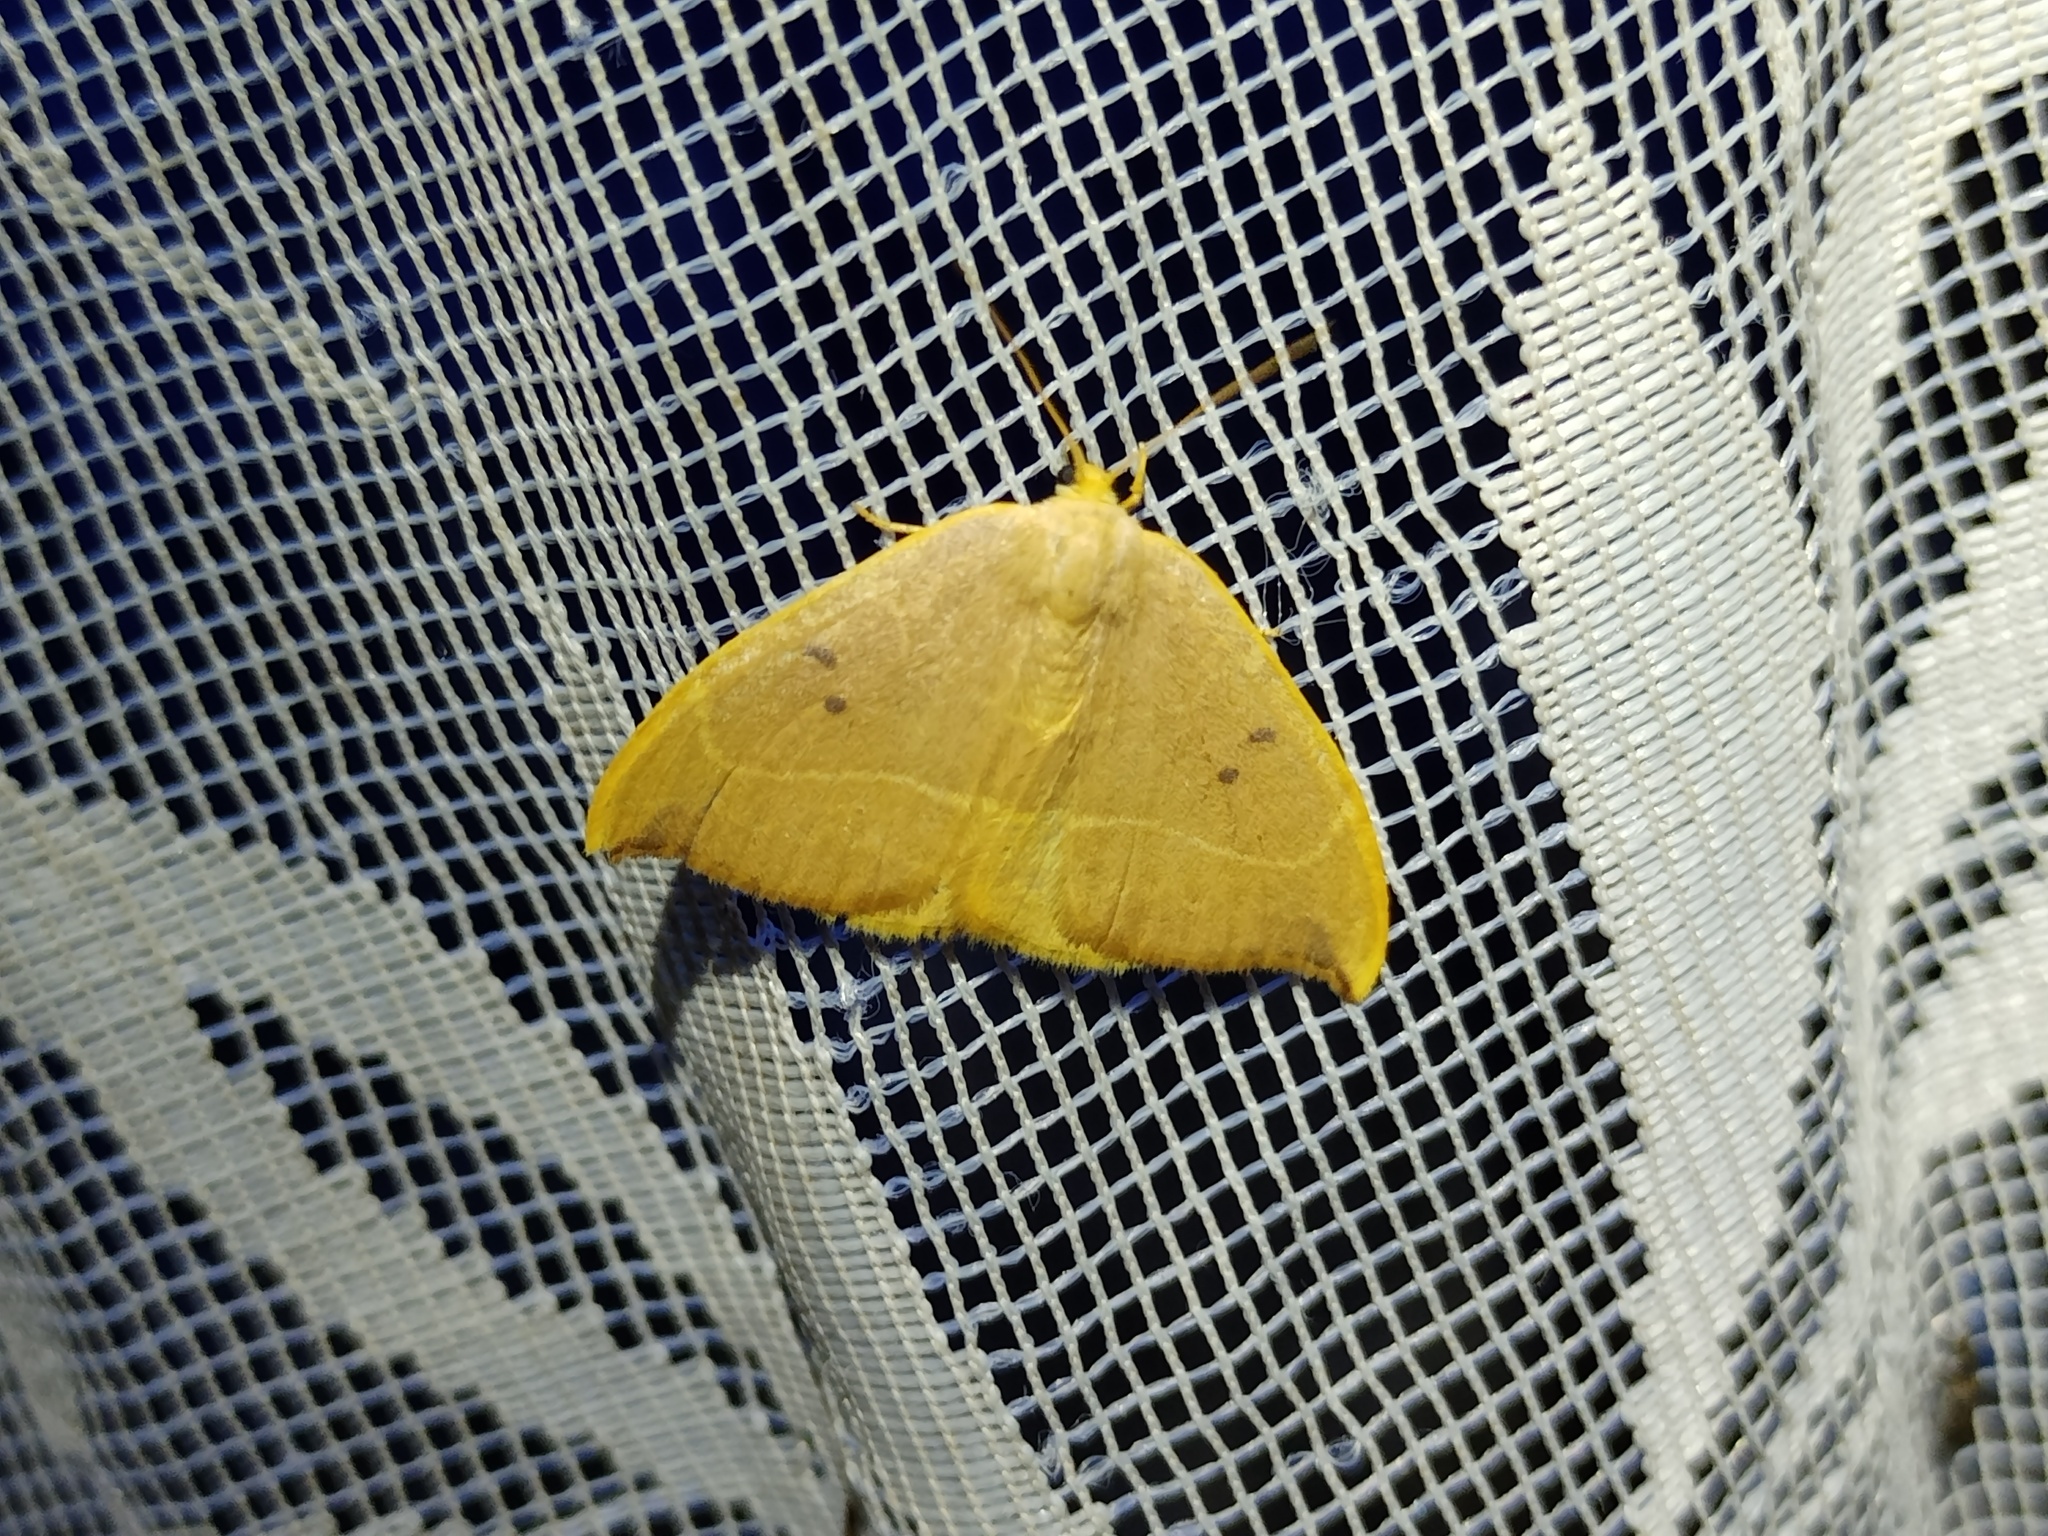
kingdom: Animalia
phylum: Arthropoda
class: Insecta
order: Lepidoptera
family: Drepanidae
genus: Watsonalla
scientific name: Watsonalla binaria
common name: Oak hook-tip
